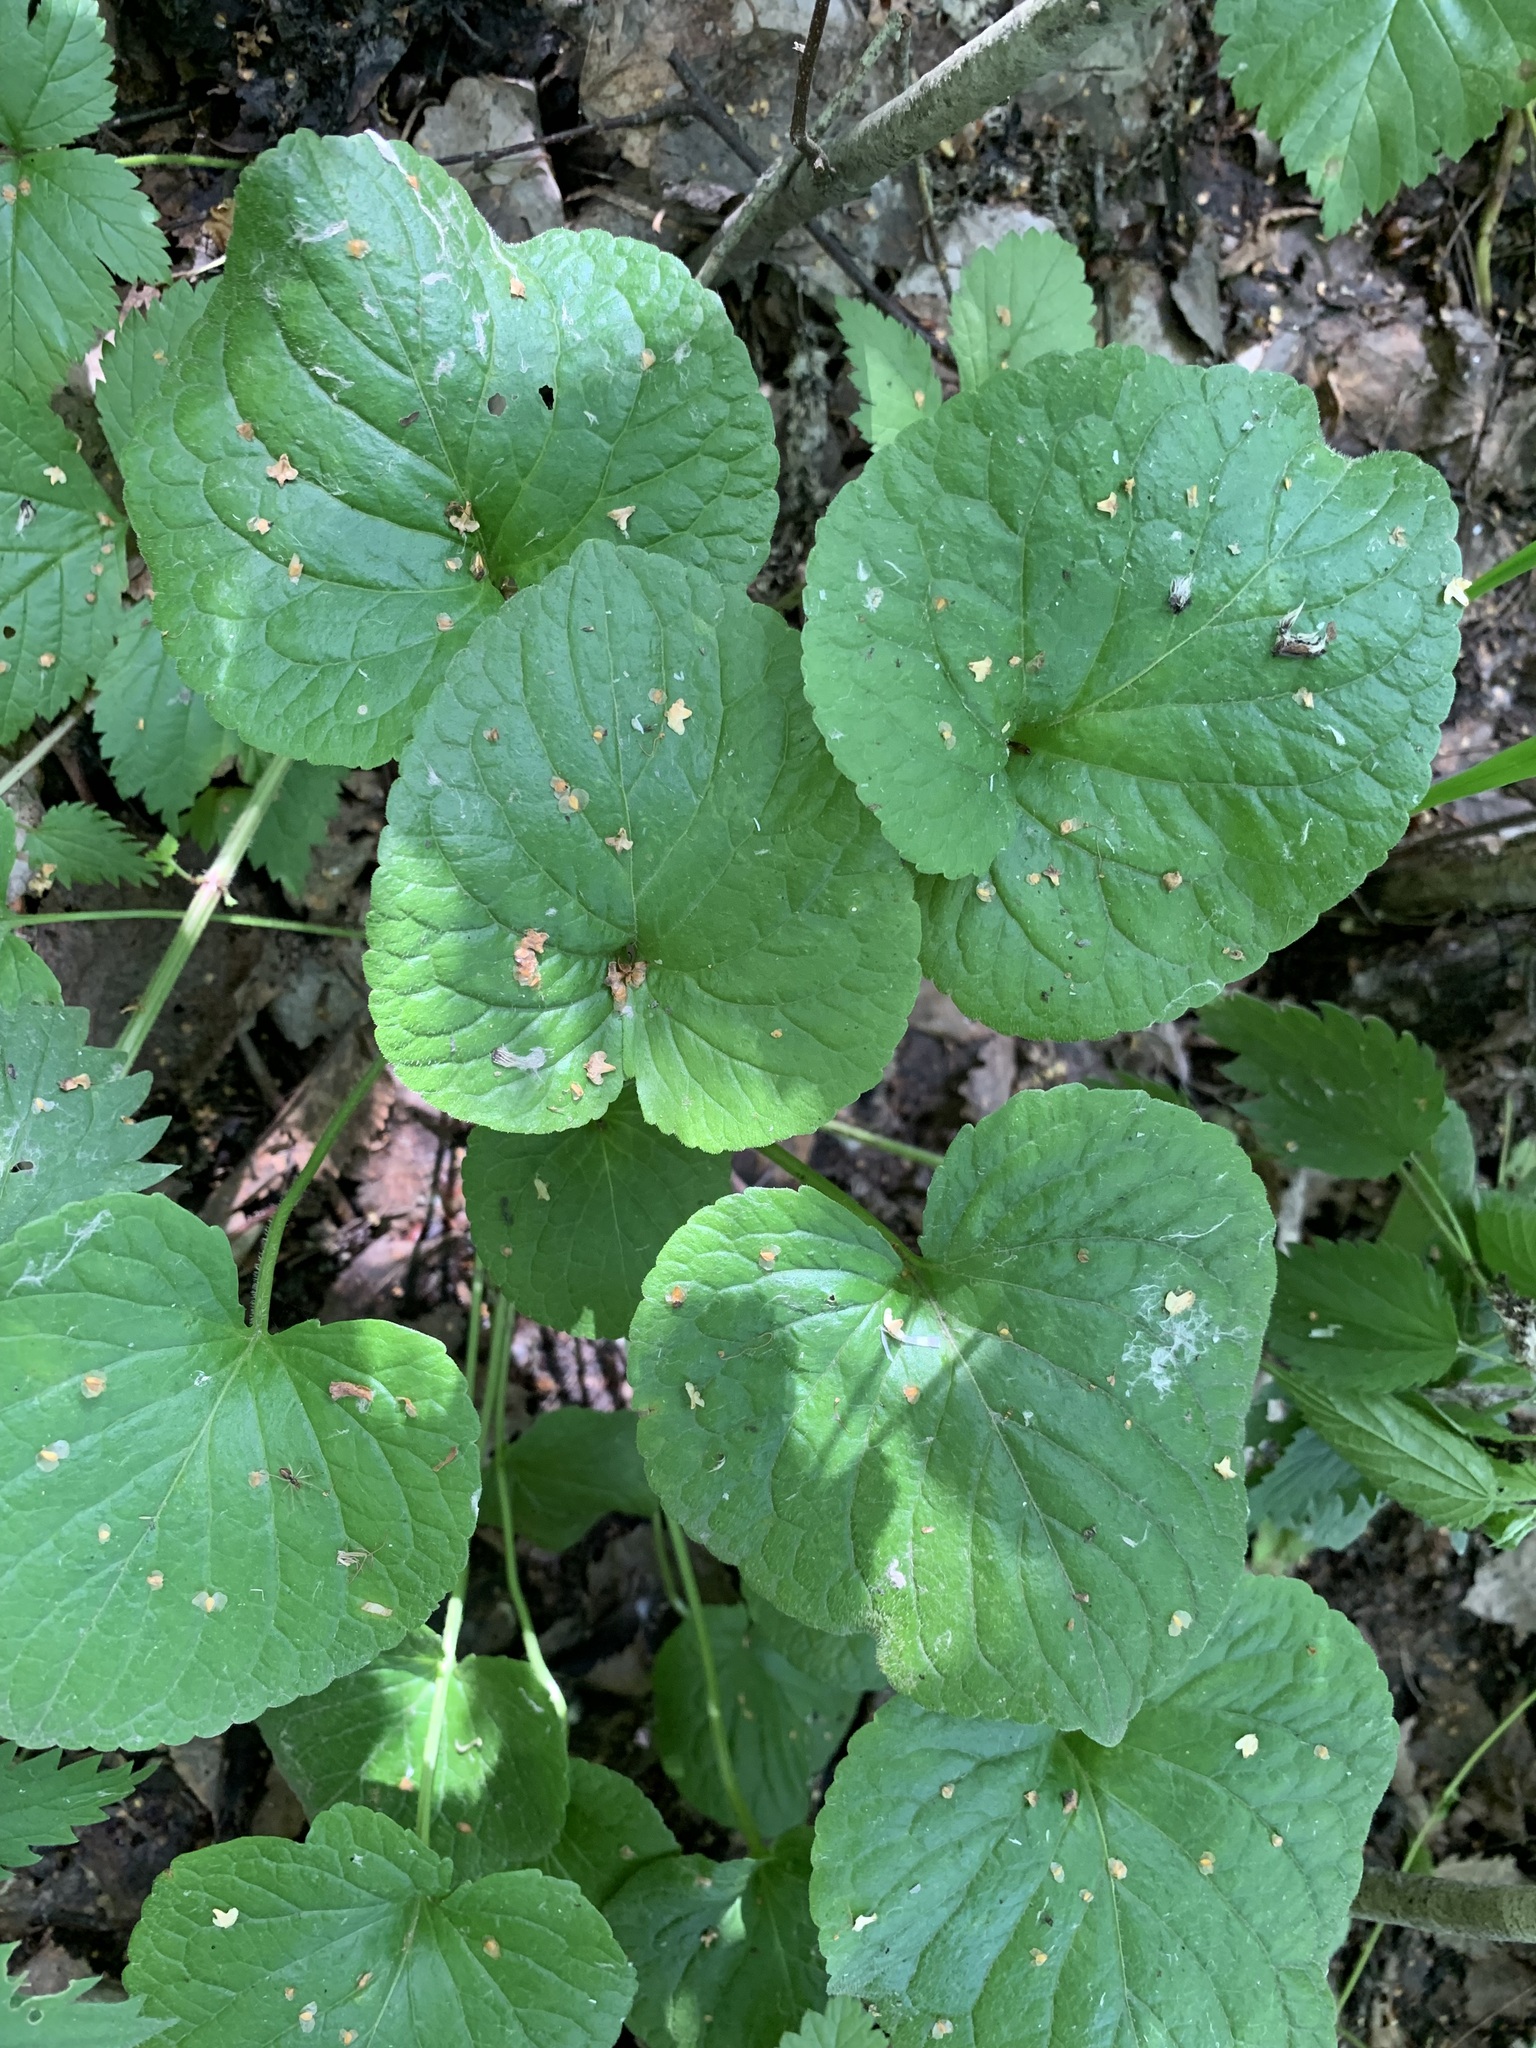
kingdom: Plantae
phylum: Tracheophyta
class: Magnoliopsida
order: Malpighiales
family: Violaceae
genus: Viola
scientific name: Viola mirabilis
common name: Wonder violet
